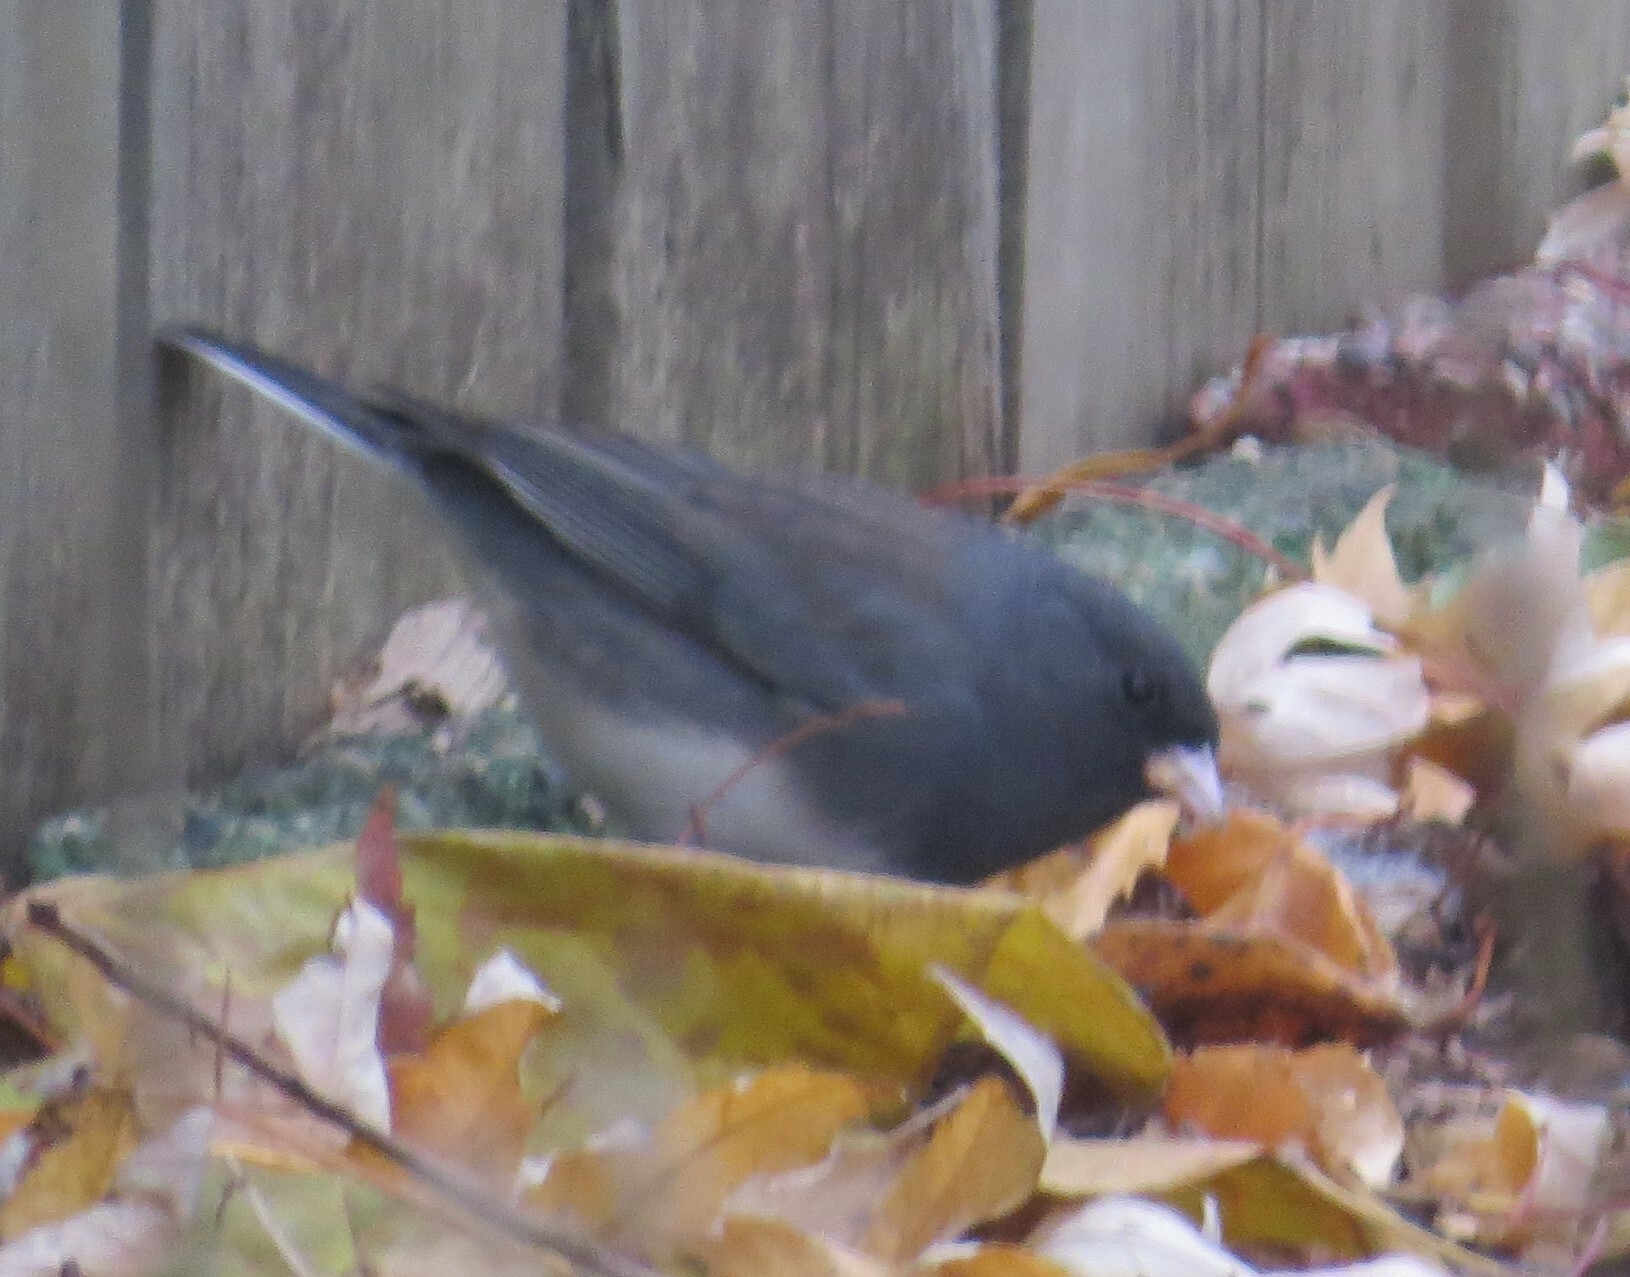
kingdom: Animalia
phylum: Chordata
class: Aves
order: Passeriformes
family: Passerellidae
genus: Junco
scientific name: Junco hyemalis
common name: Dark-eyed junco
